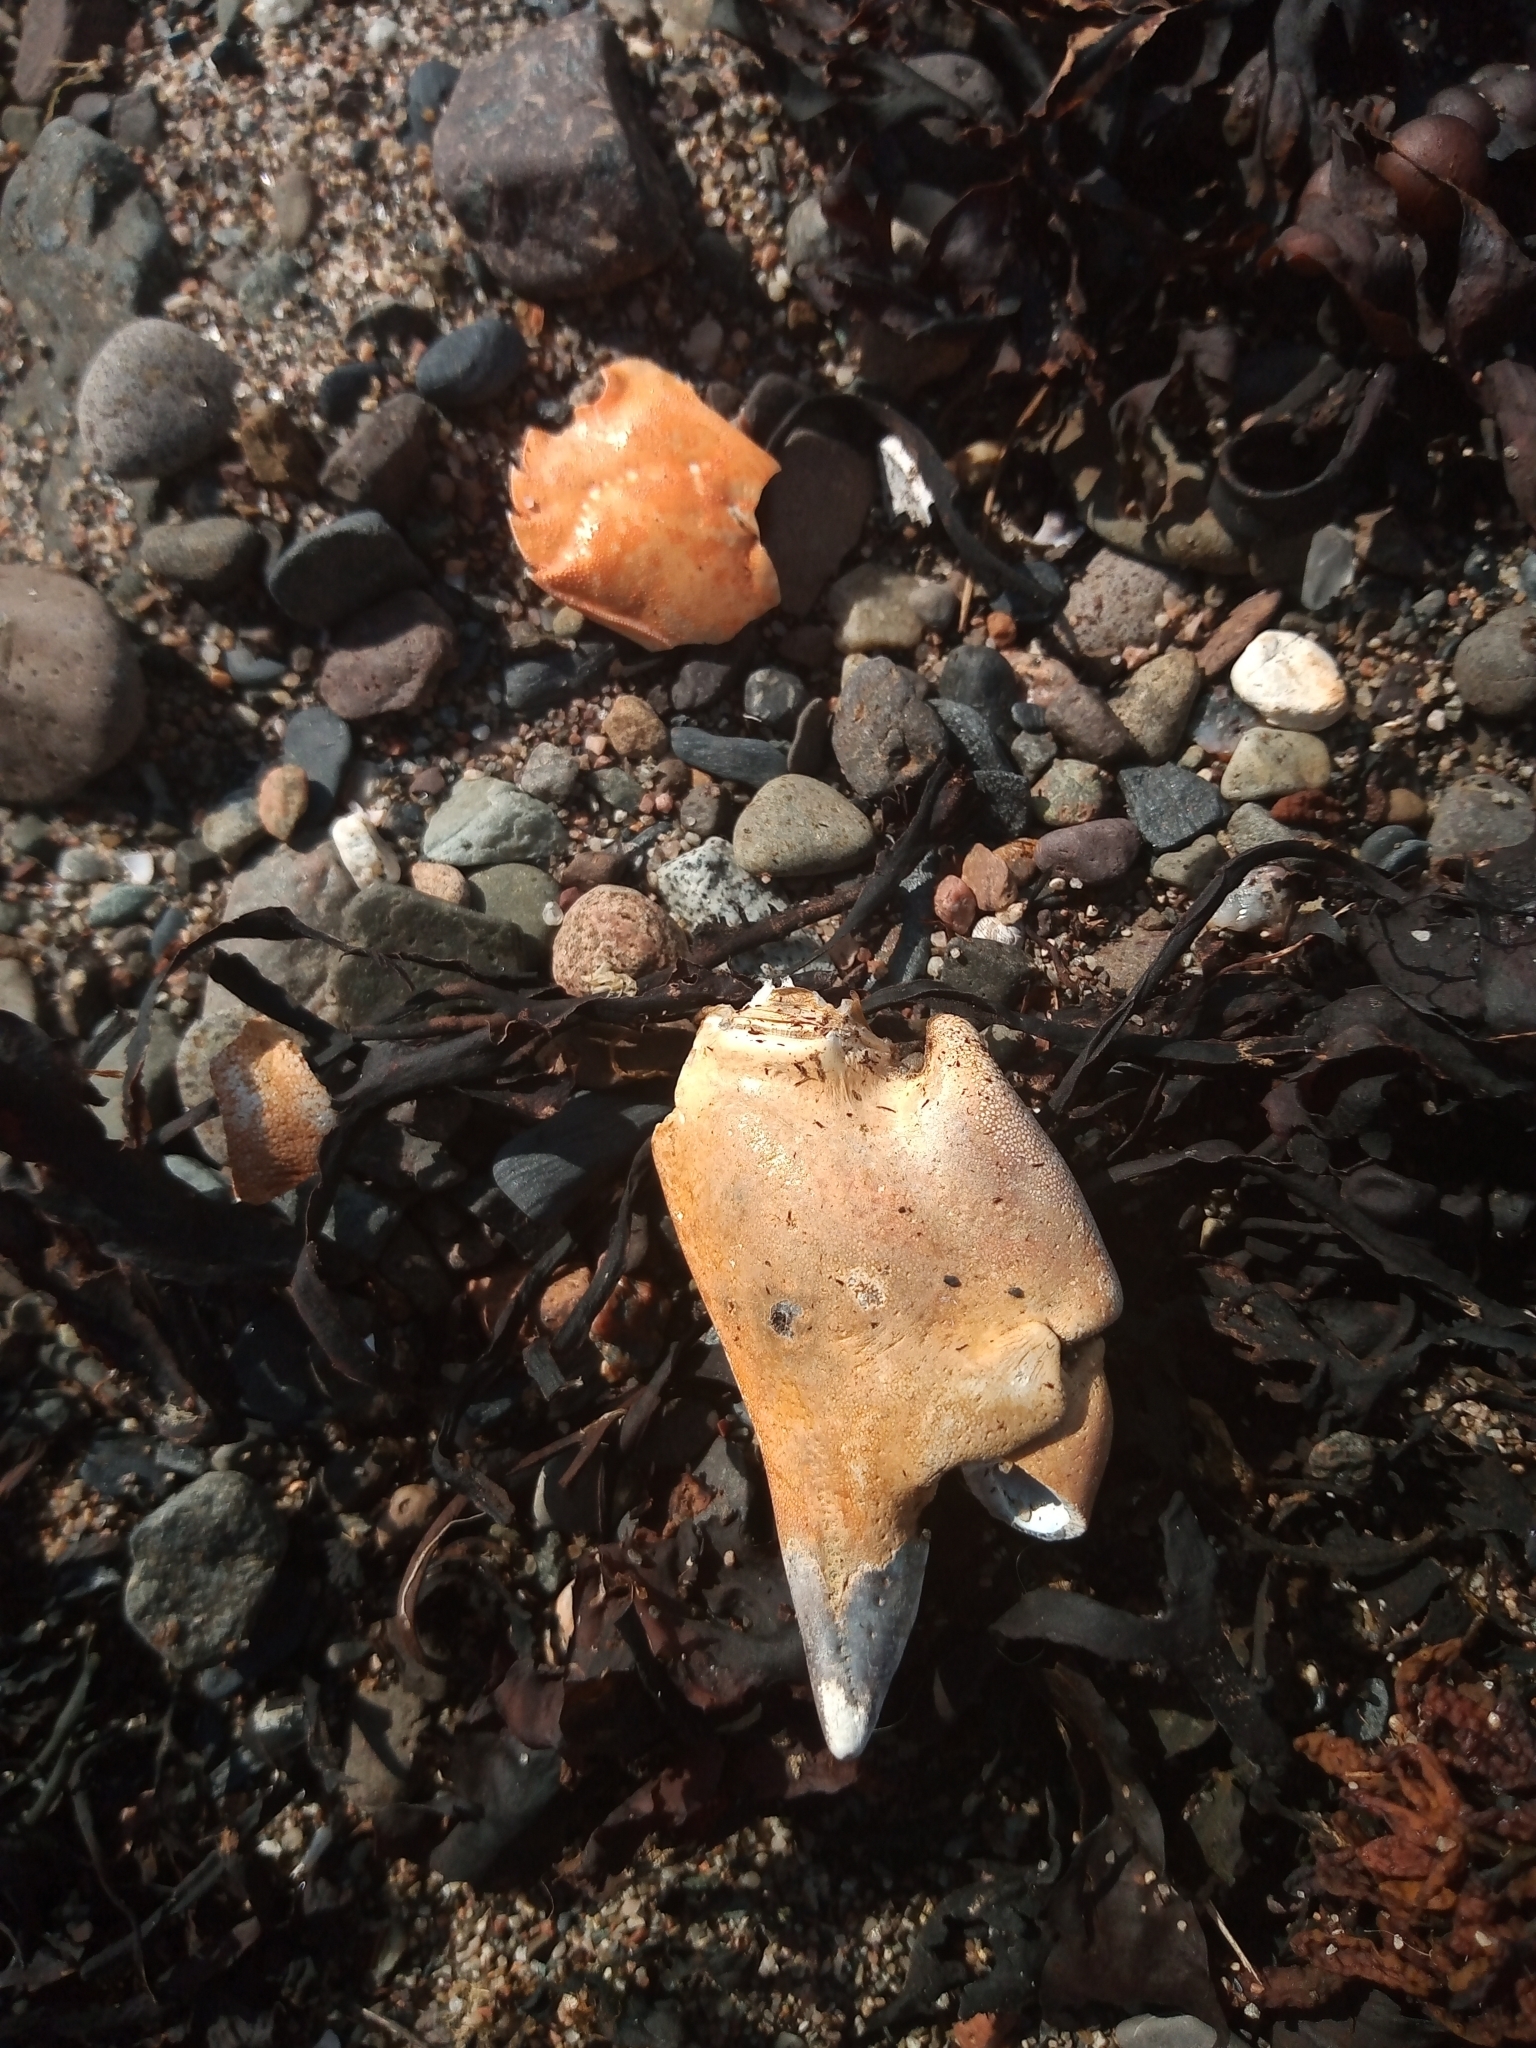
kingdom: Animalia
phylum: Arthropoda
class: Malacostraca
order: Decapoda
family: Cancridae
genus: Cancer
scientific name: Cancer pagurus
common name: Edible crab
